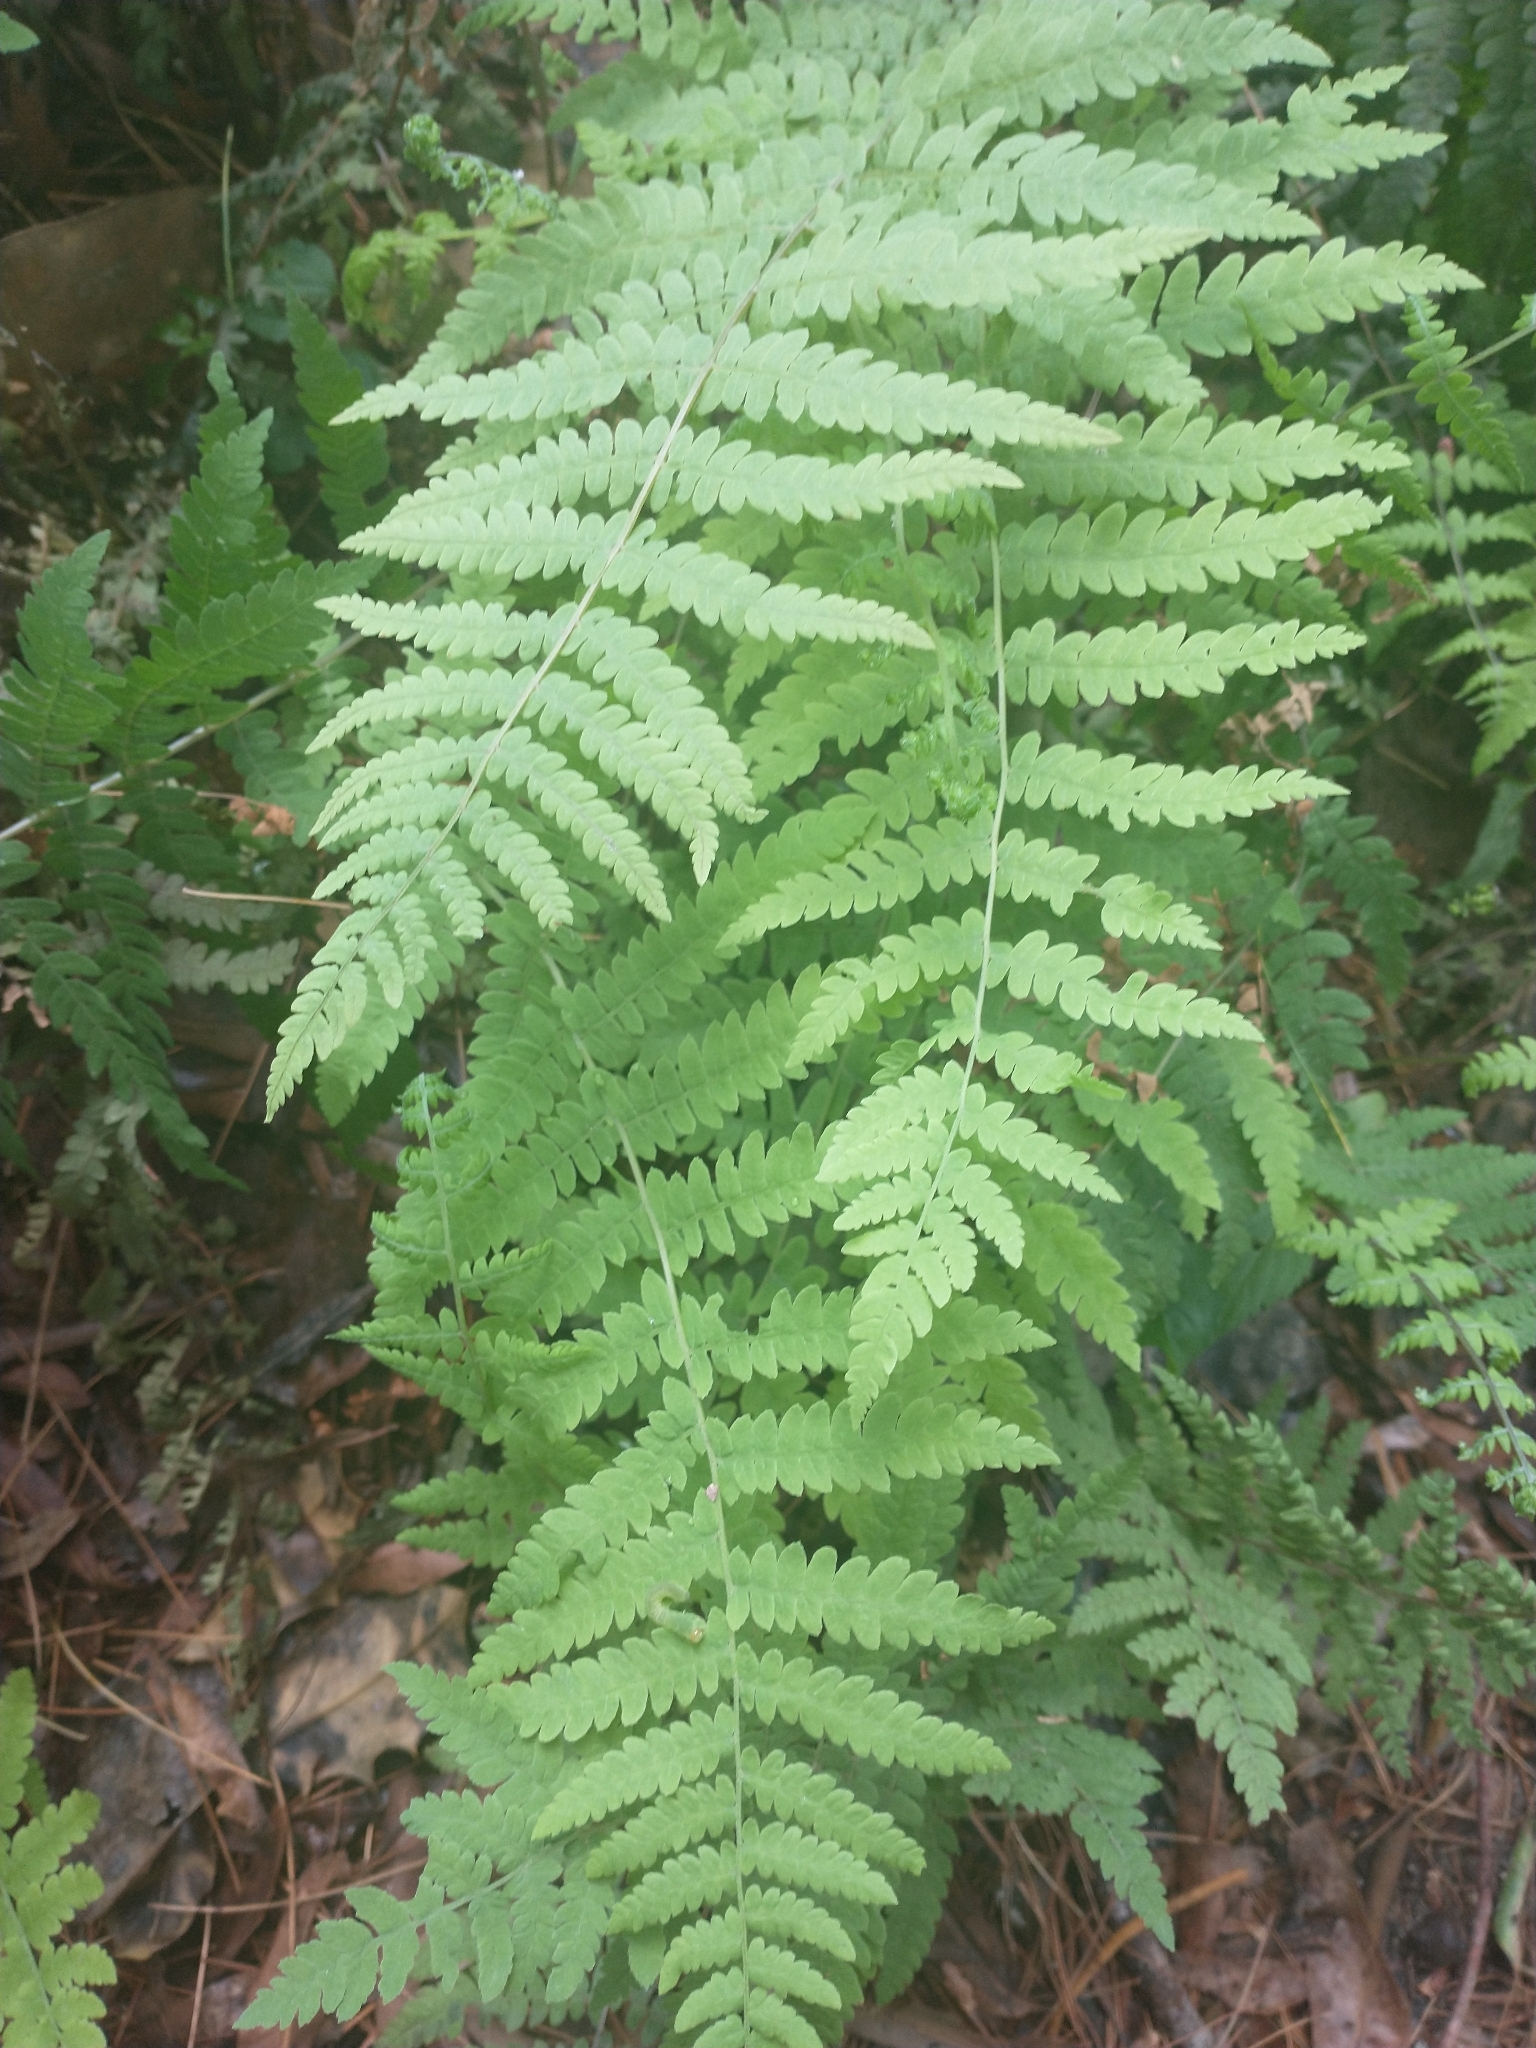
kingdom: Plantae
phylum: Tracheophyta
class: Polypodiopsida
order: Polypodiales
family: Thelypteridaceae
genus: Amauropelta
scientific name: Amauropelta noveboracensis
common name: New york fern
